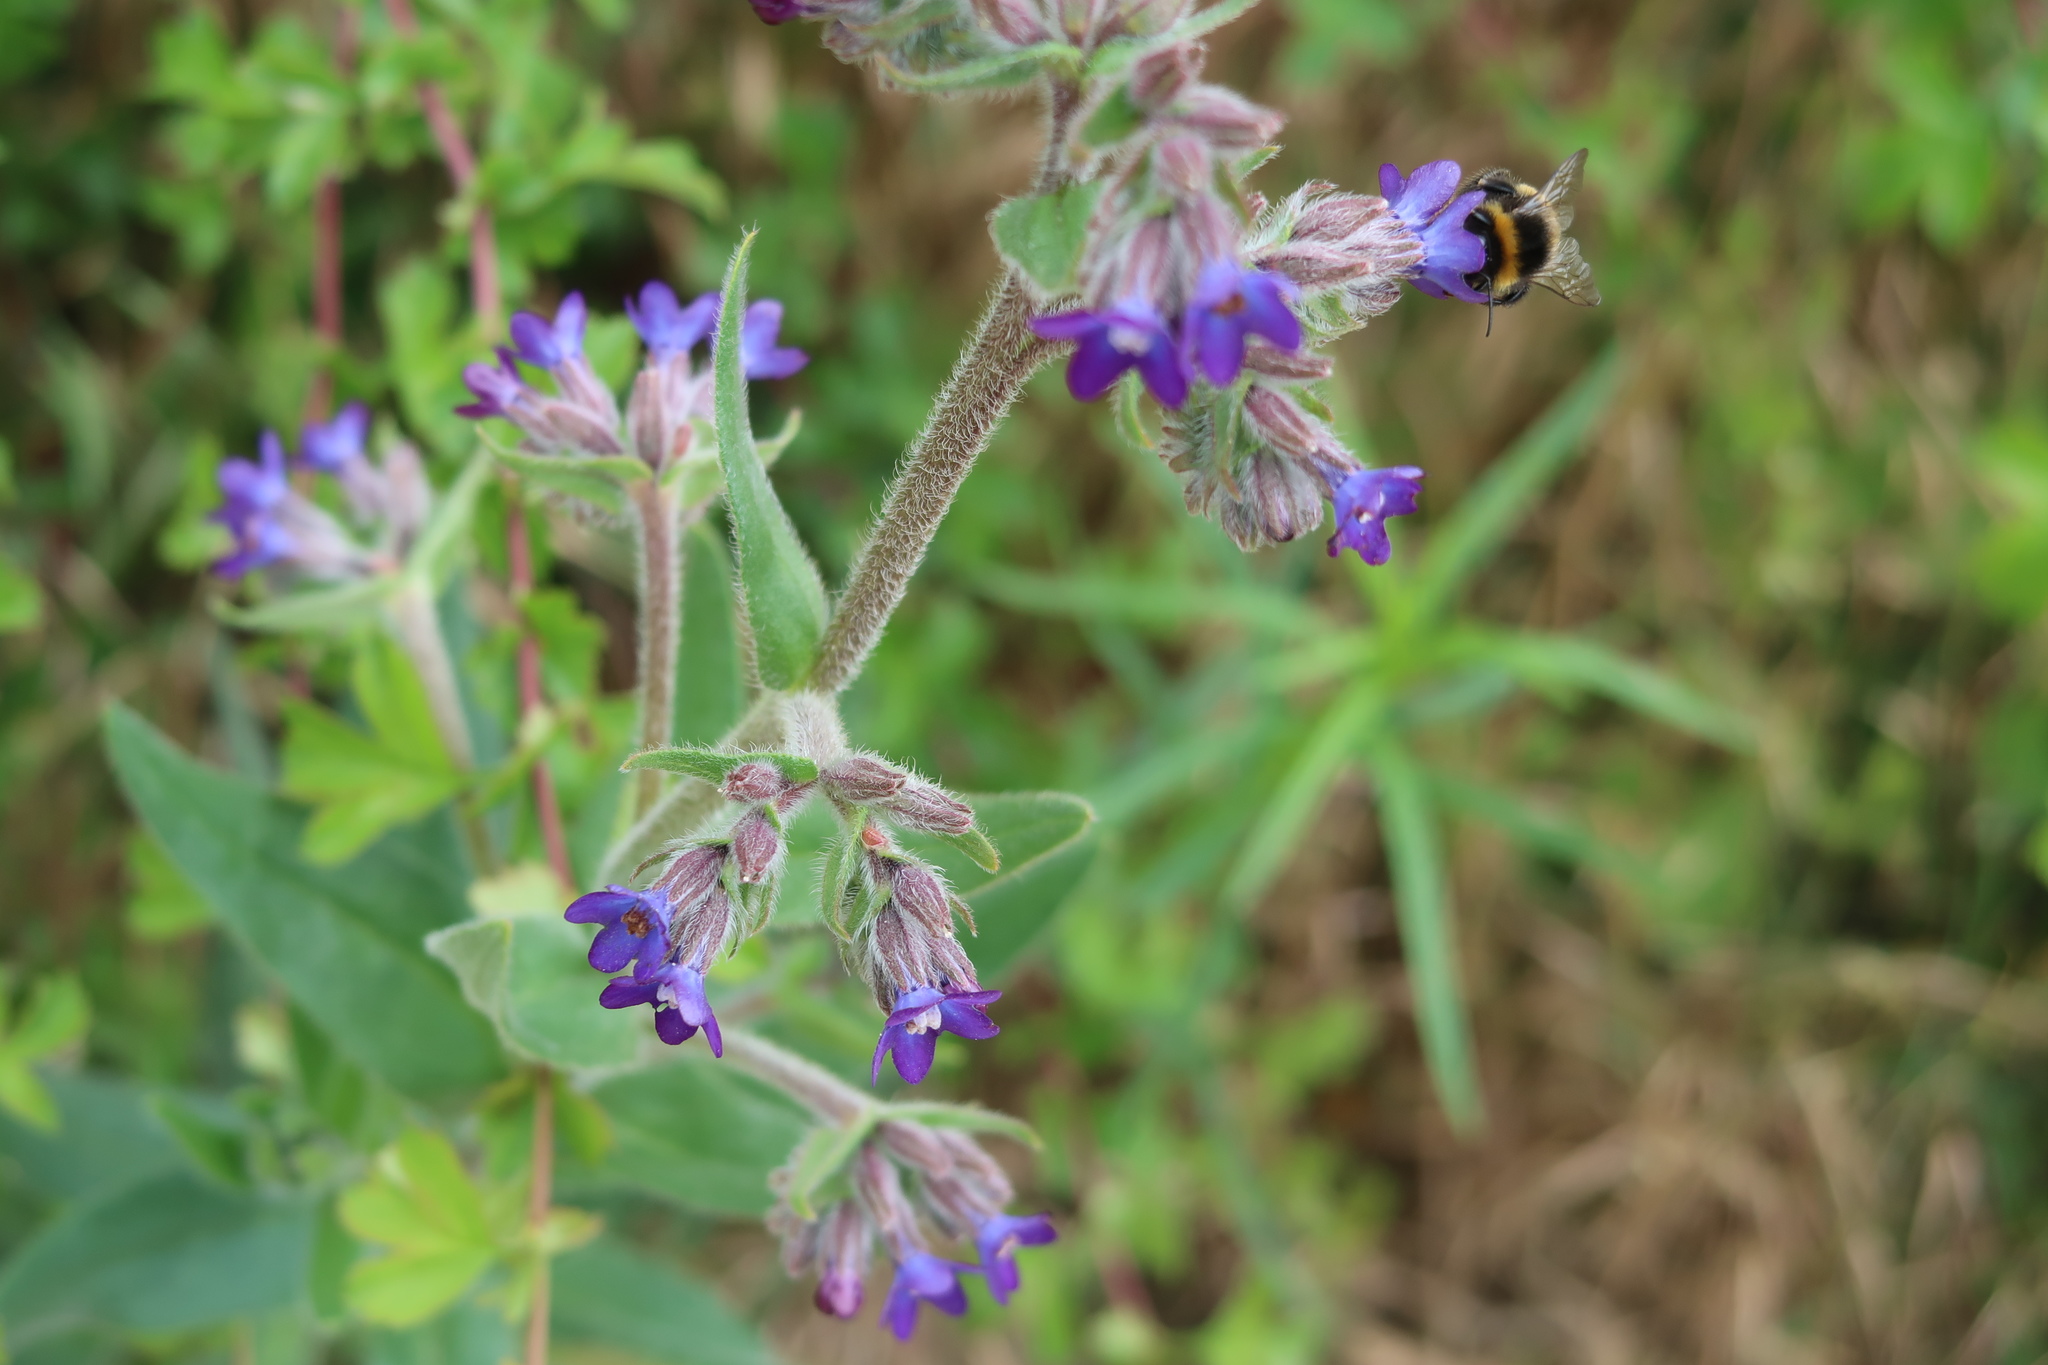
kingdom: Plantae
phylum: Tracheophyta
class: Magnoliopsida
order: Boraginales
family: Boraginaceae
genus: Anchusa
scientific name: Anchusa officinalis
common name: Alkanet
